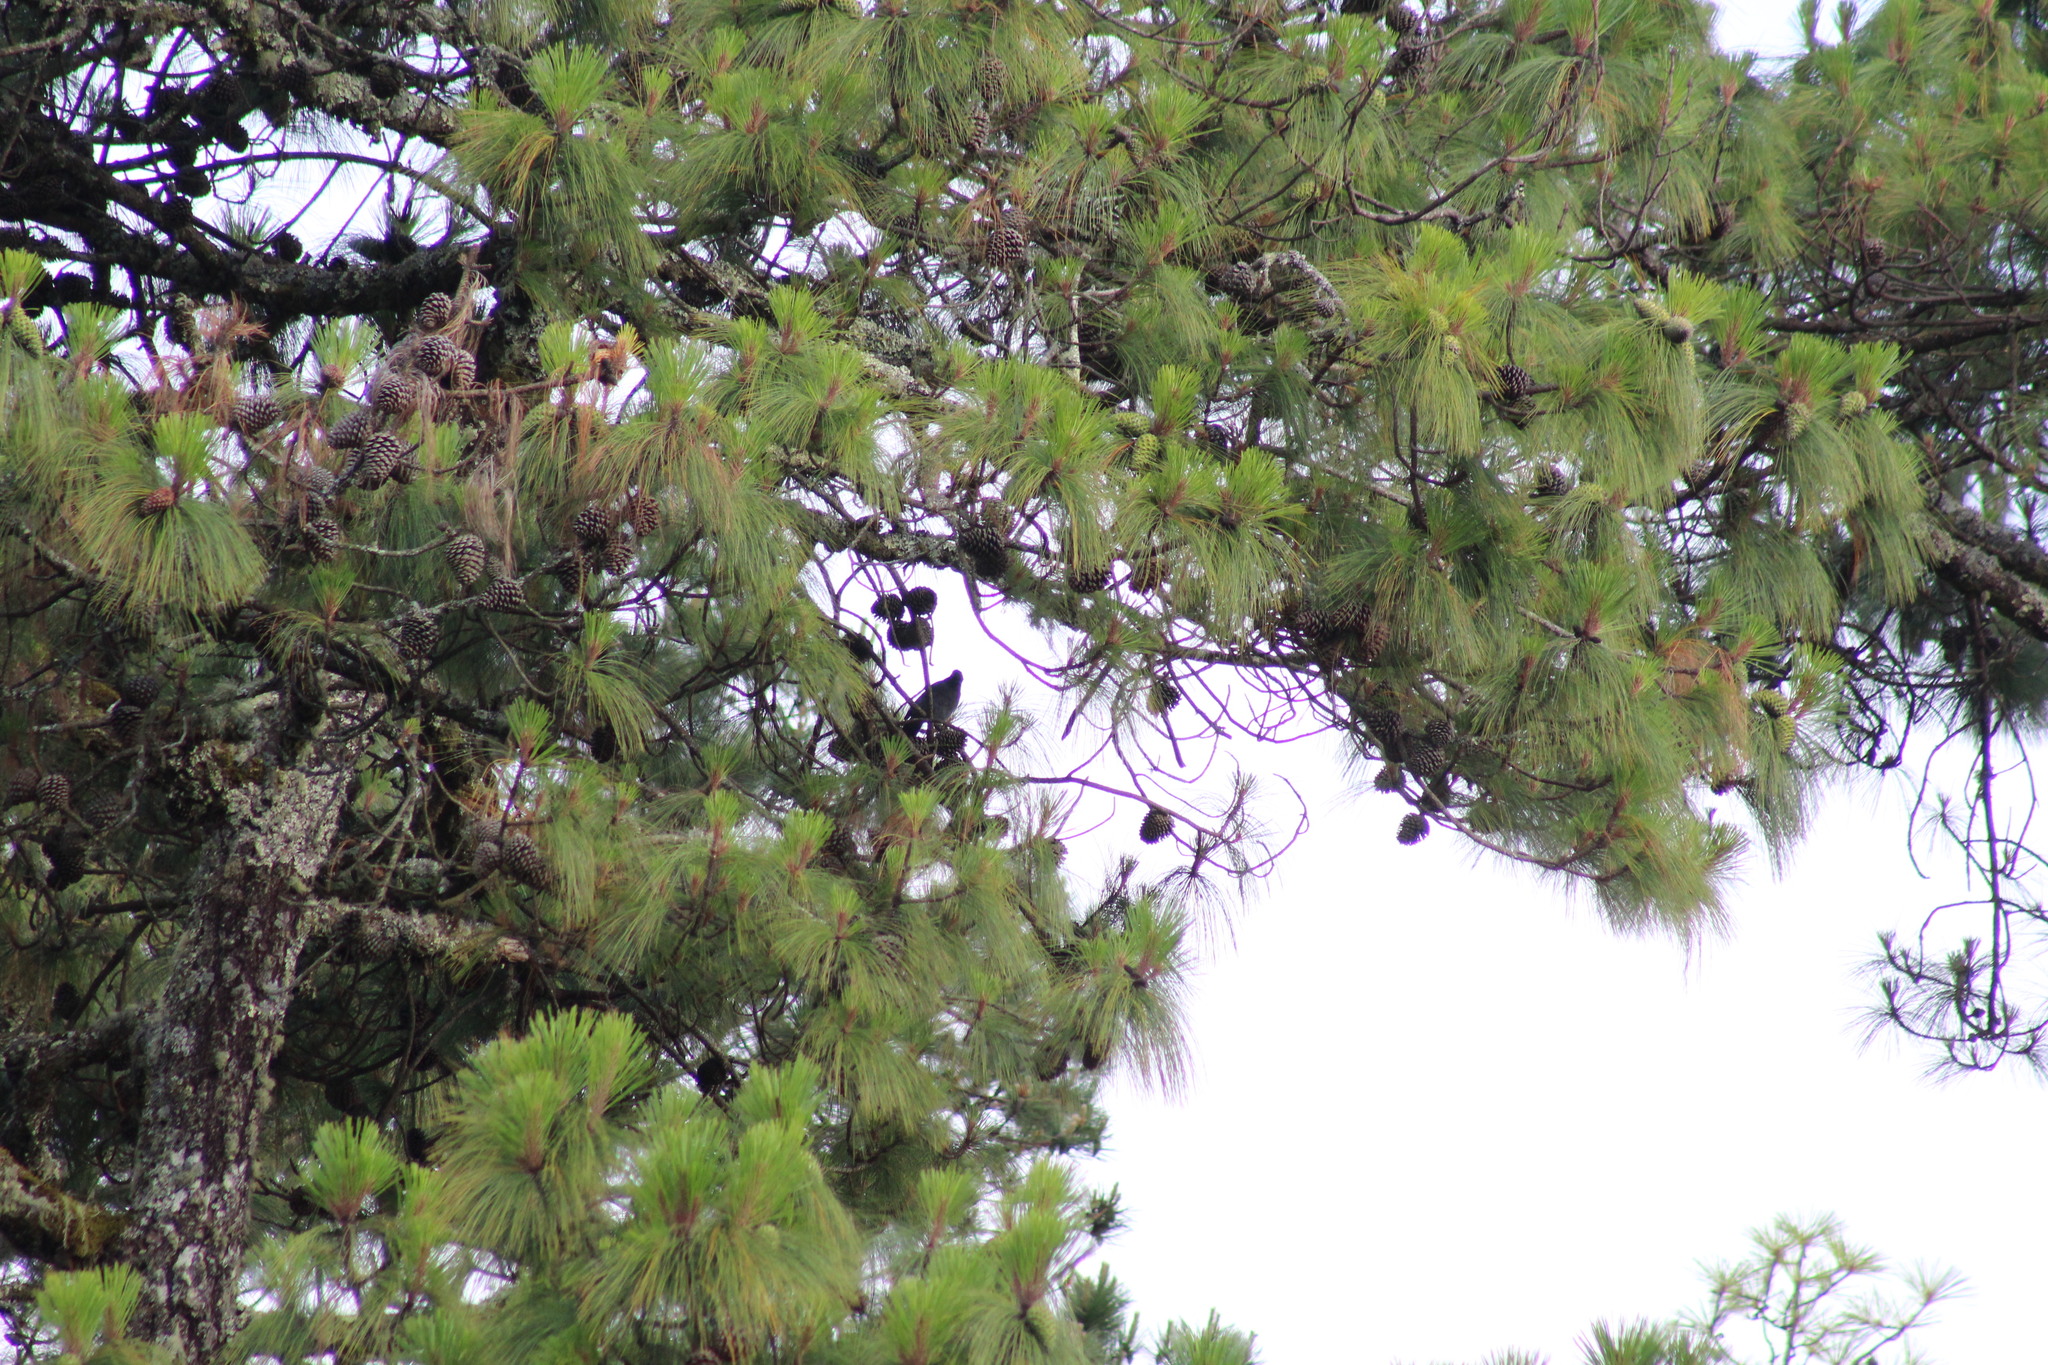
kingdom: Animalia
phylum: Chordata
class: Aves
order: Passeriformes
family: Corvidae
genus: Cyanocitta
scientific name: Cyanocitta stelleri
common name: Steller's jay
